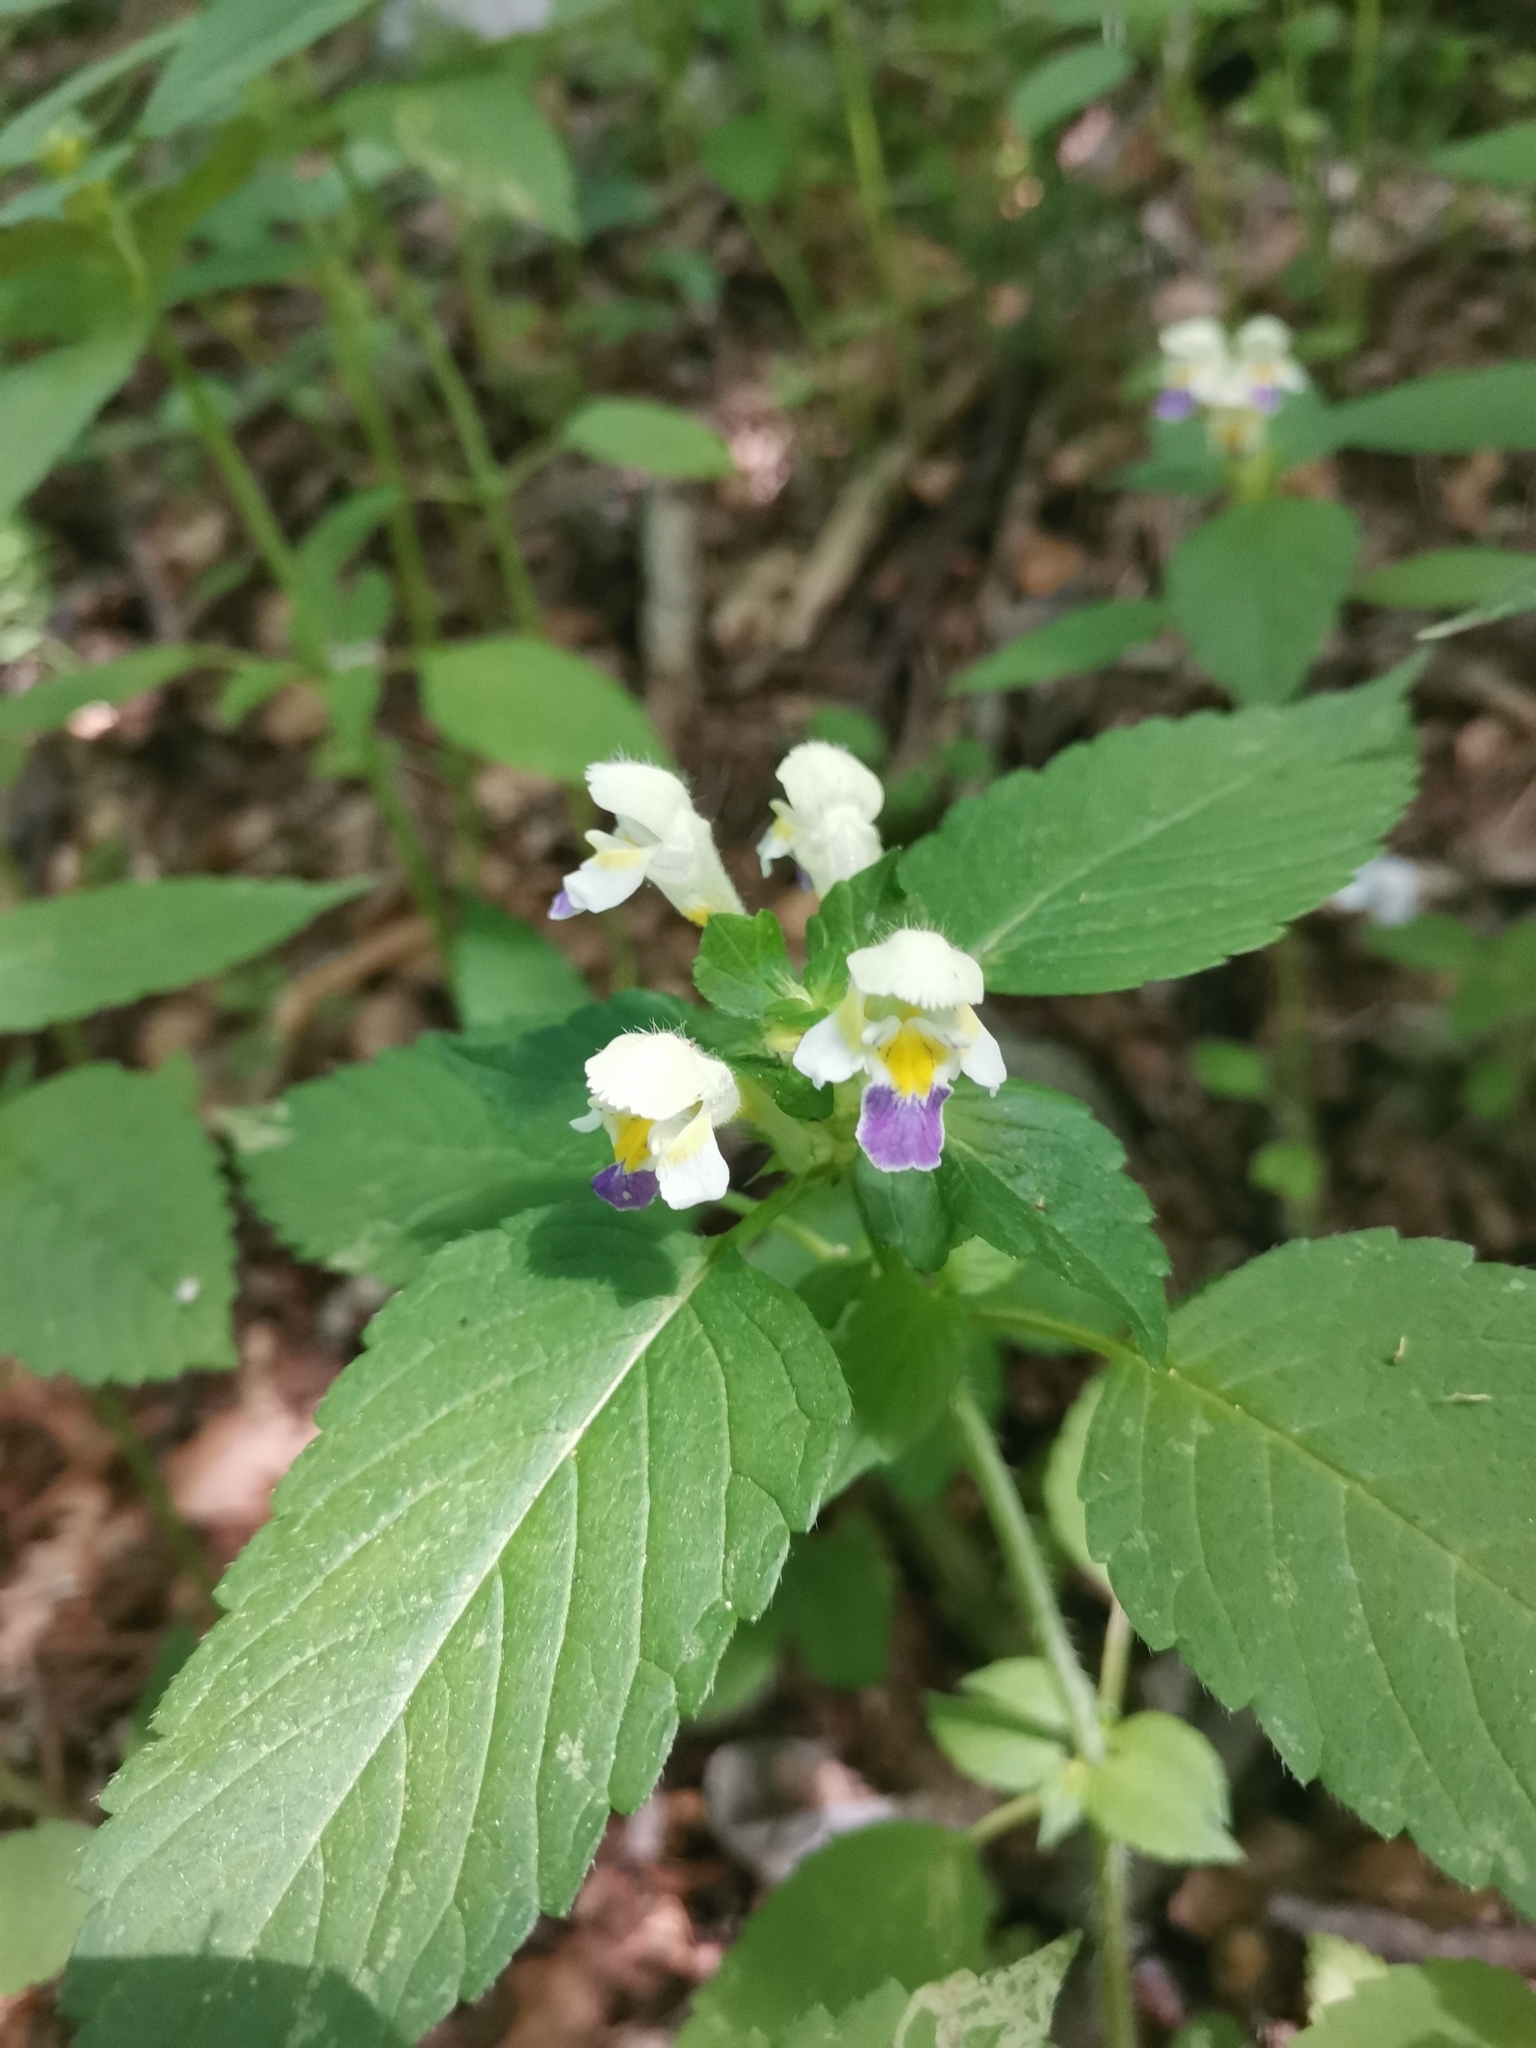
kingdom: Plantae
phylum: Tracheophyta
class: Magnoliopsida
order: Lamiales
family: Lamiaceae
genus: Galeopsis
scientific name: Galeopsis speciosa
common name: Large-flowered hemp-nettle
